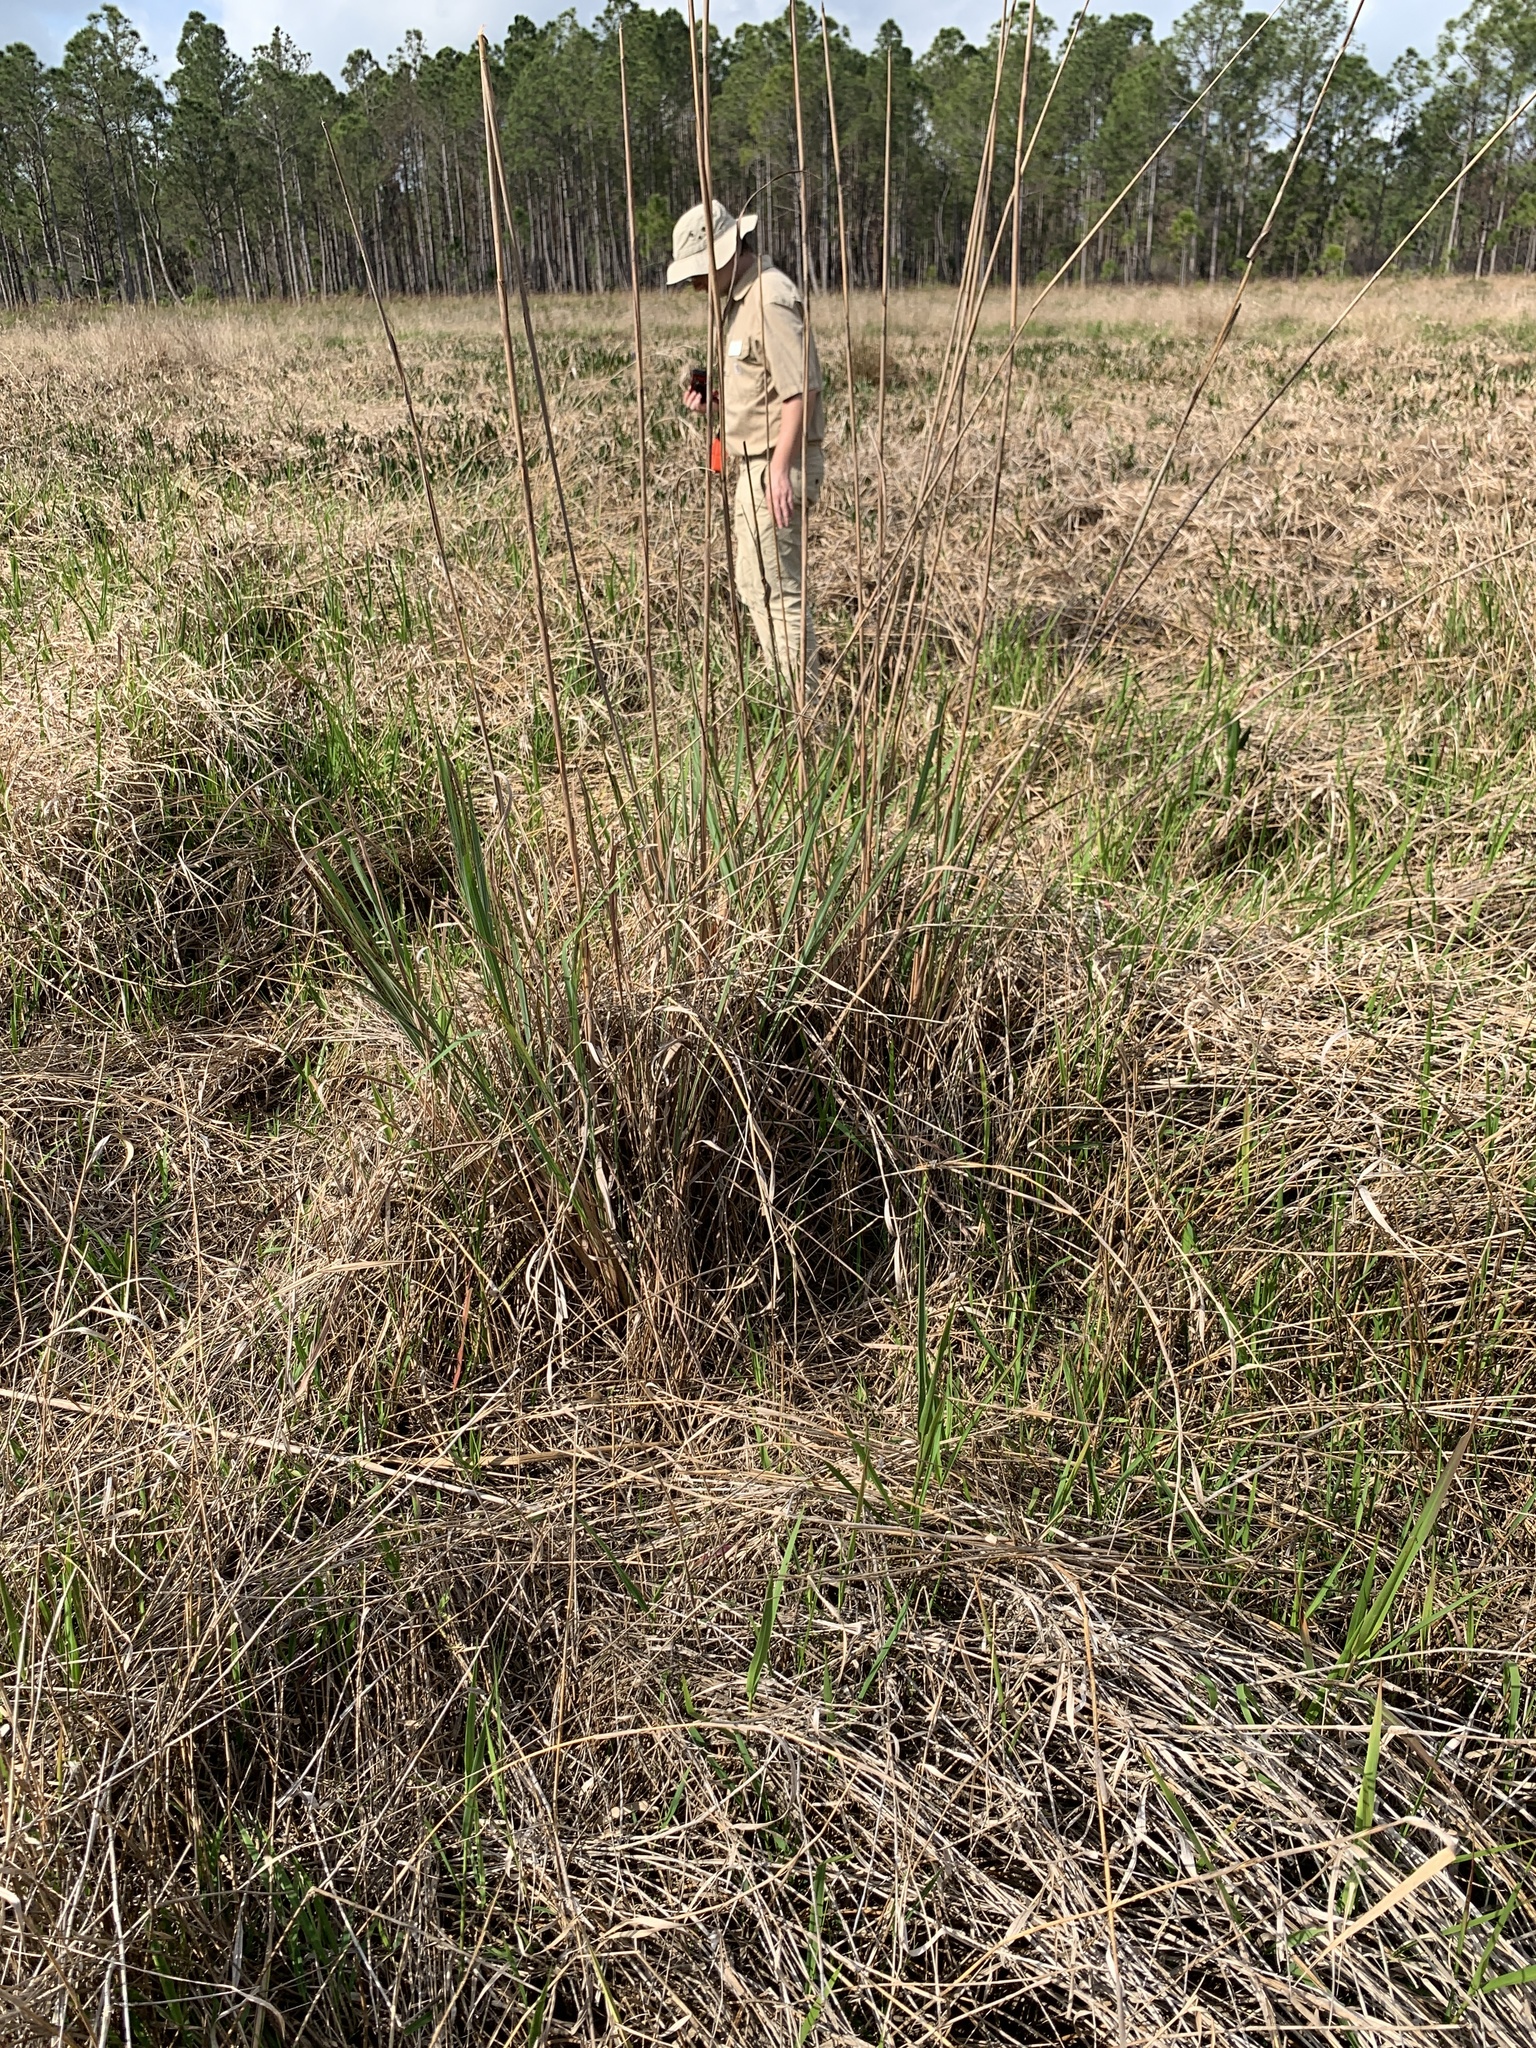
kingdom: Plantae
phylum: Tracheophyta
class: Liliopsida
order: Poales
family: Poaceae
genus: Tripsacum
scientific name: Tripsacum dactyloides
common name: Buffalo-grass
